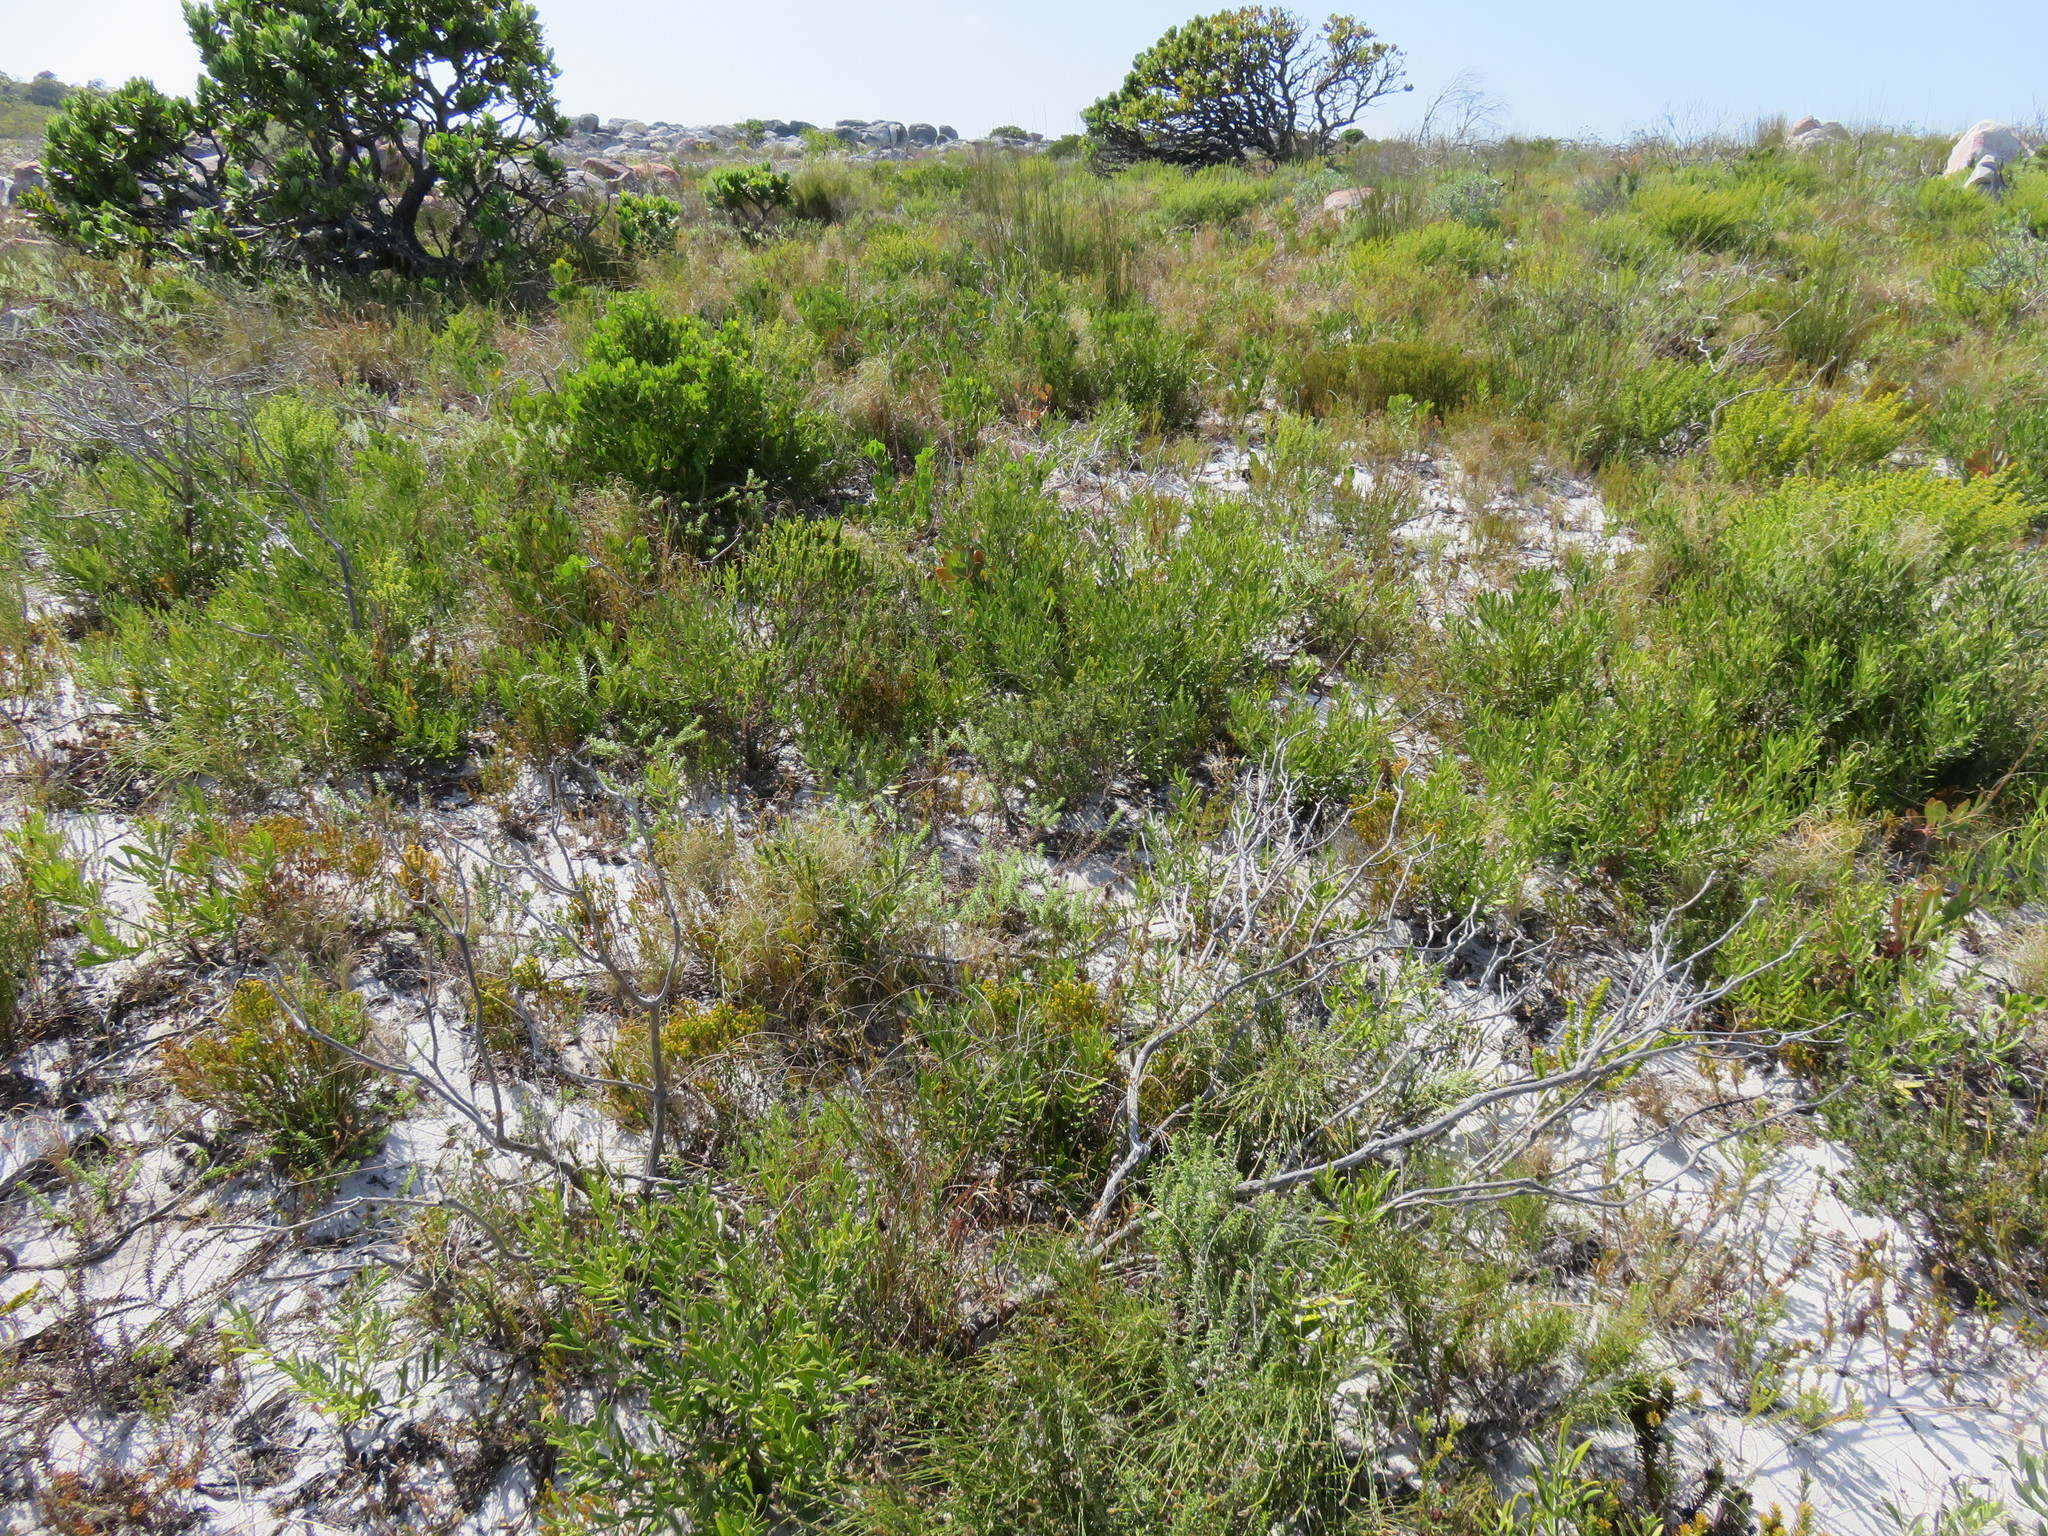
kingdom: Plantae
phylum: Tracheophyta
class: Magnoliopsida
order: Lamiales
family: Oleaceae
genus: Olea
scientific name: Olea exasperata
